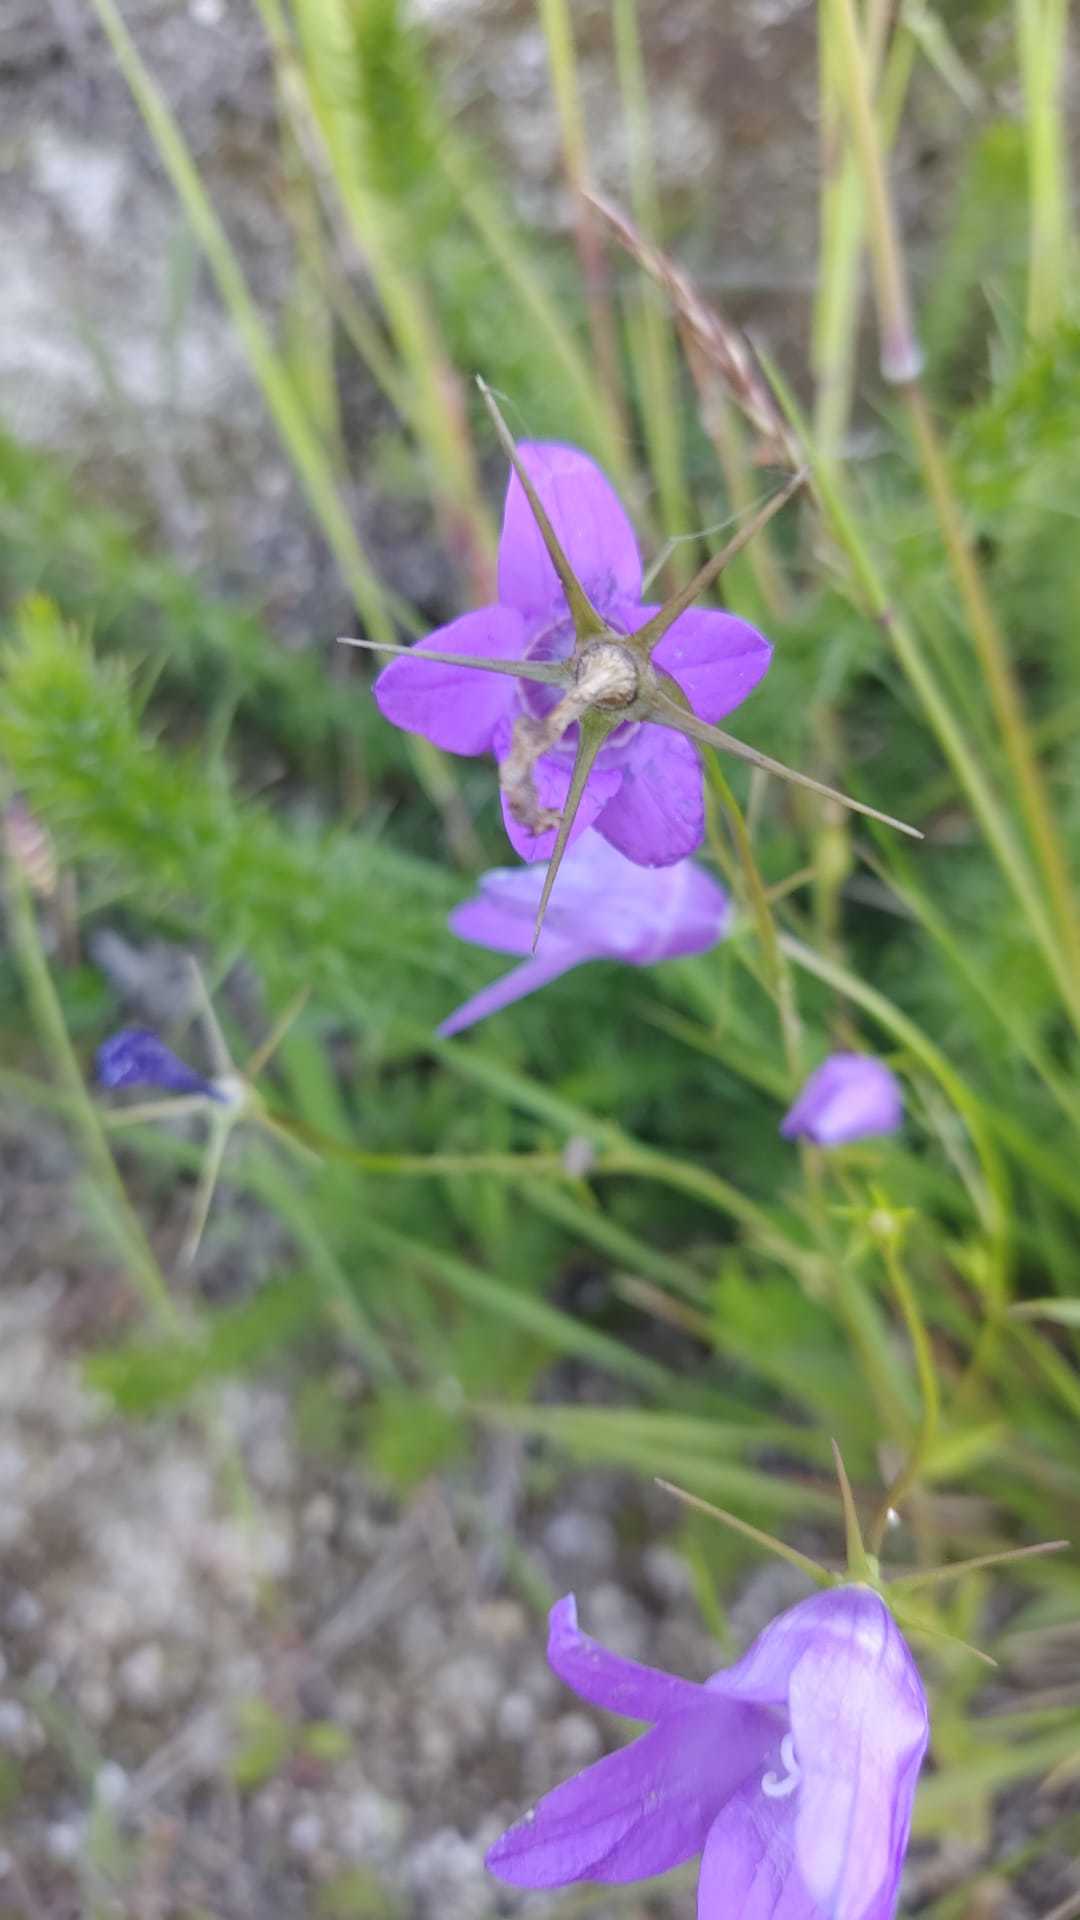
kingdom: Plantae
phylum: Tracheophyta
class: Magnoliopsida
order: Asterales
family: Campanulaceae
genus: Campanula
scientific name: Campanula rapunculus
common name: Rampion bellflower
